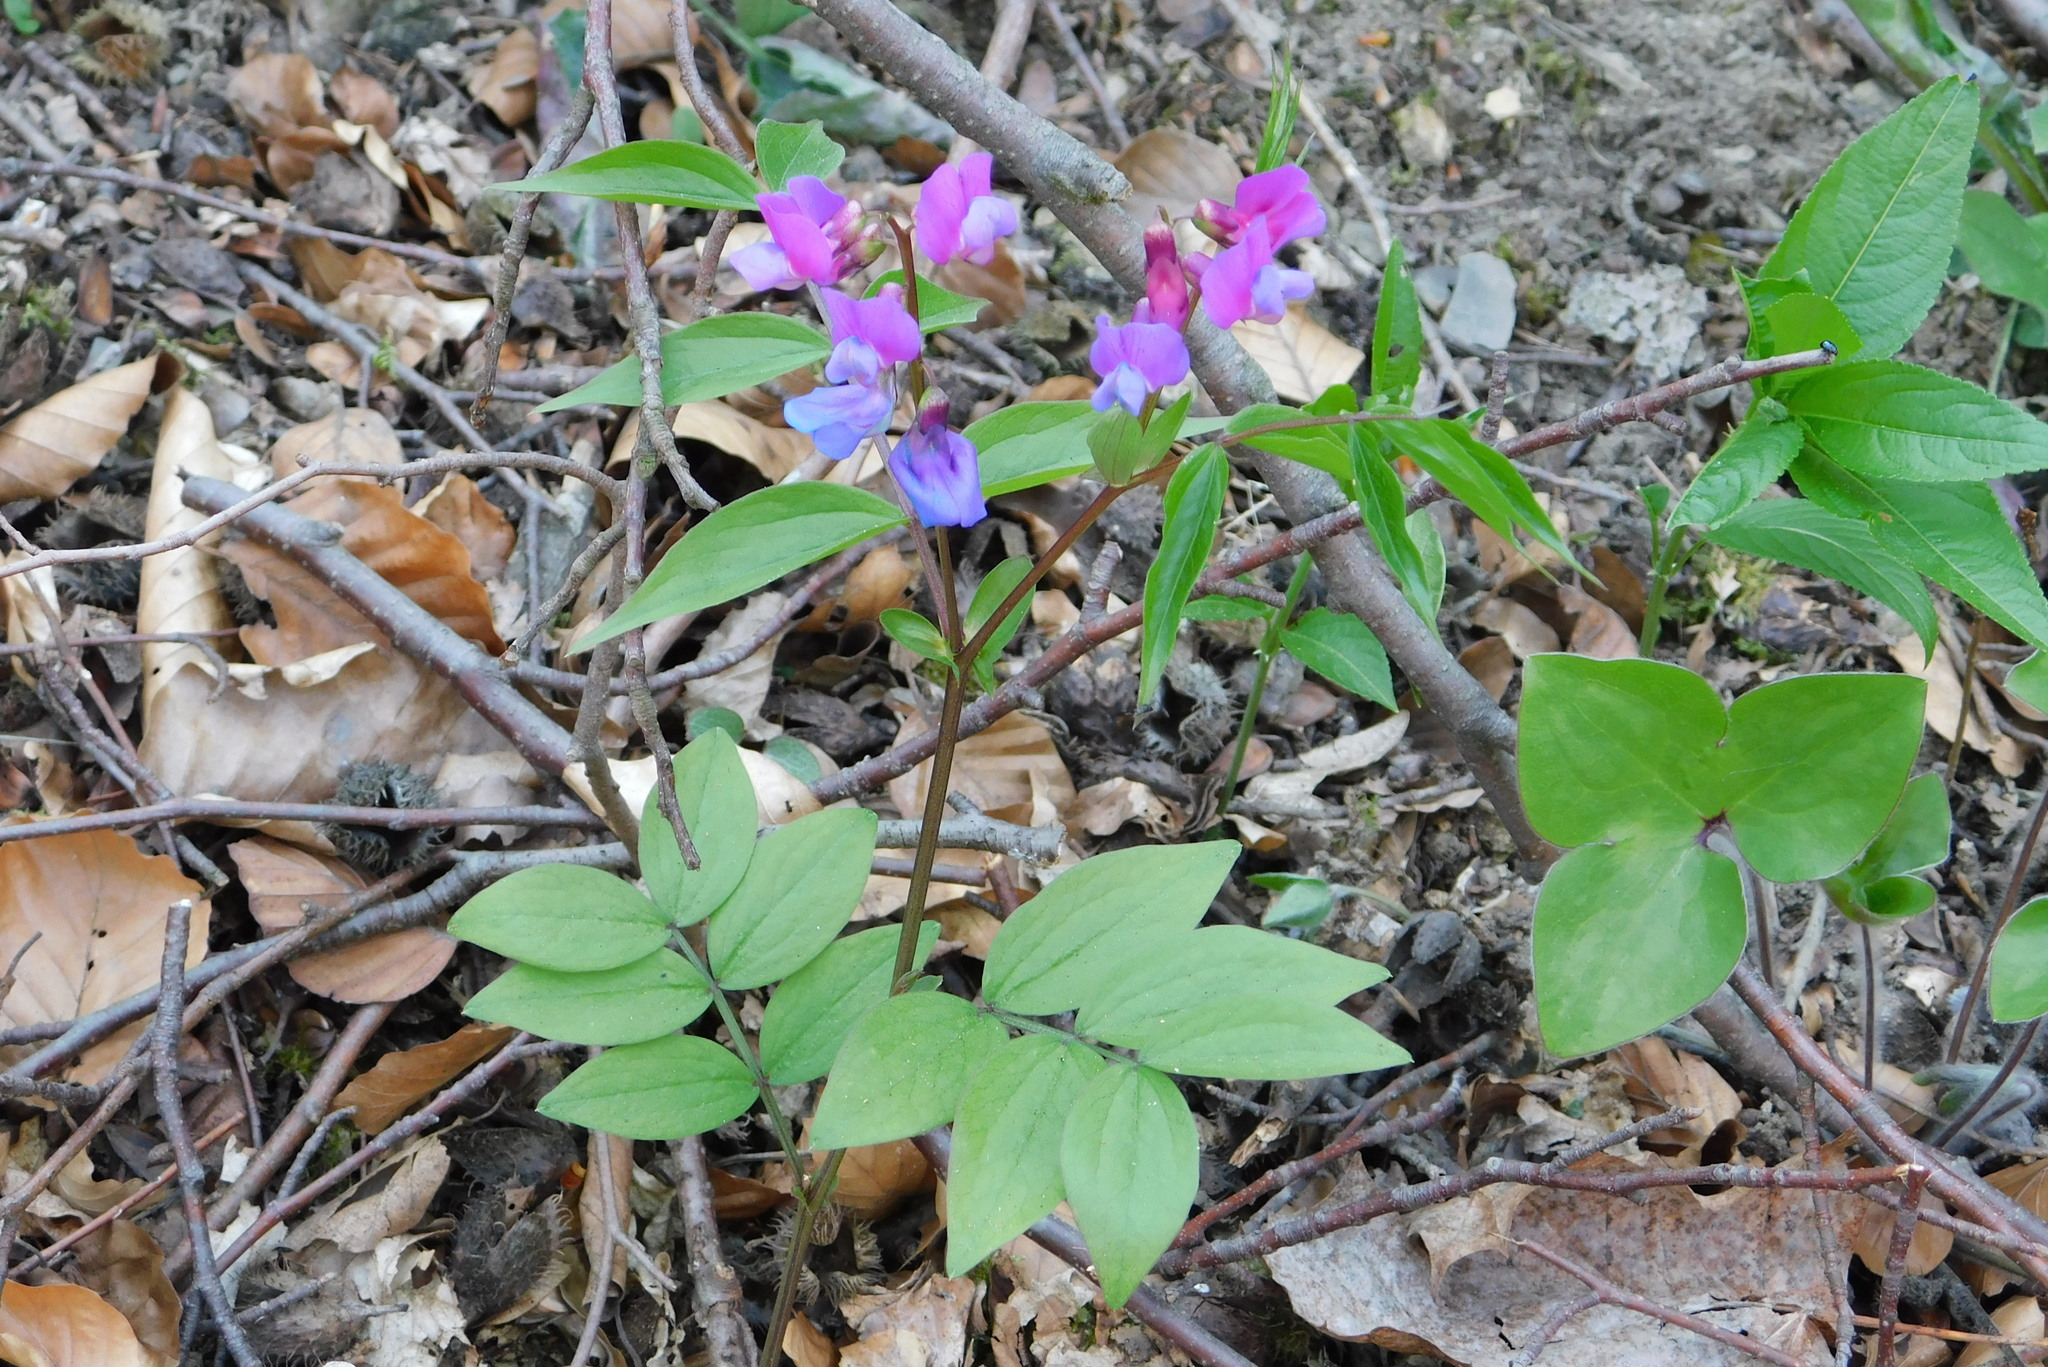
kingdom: Plantae
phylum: Tracheophyta
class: Magnoliopsida
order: Fabales
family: Fabaceae
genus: Lathyrus
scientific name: Lathyrus vernus
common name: Spring pea
